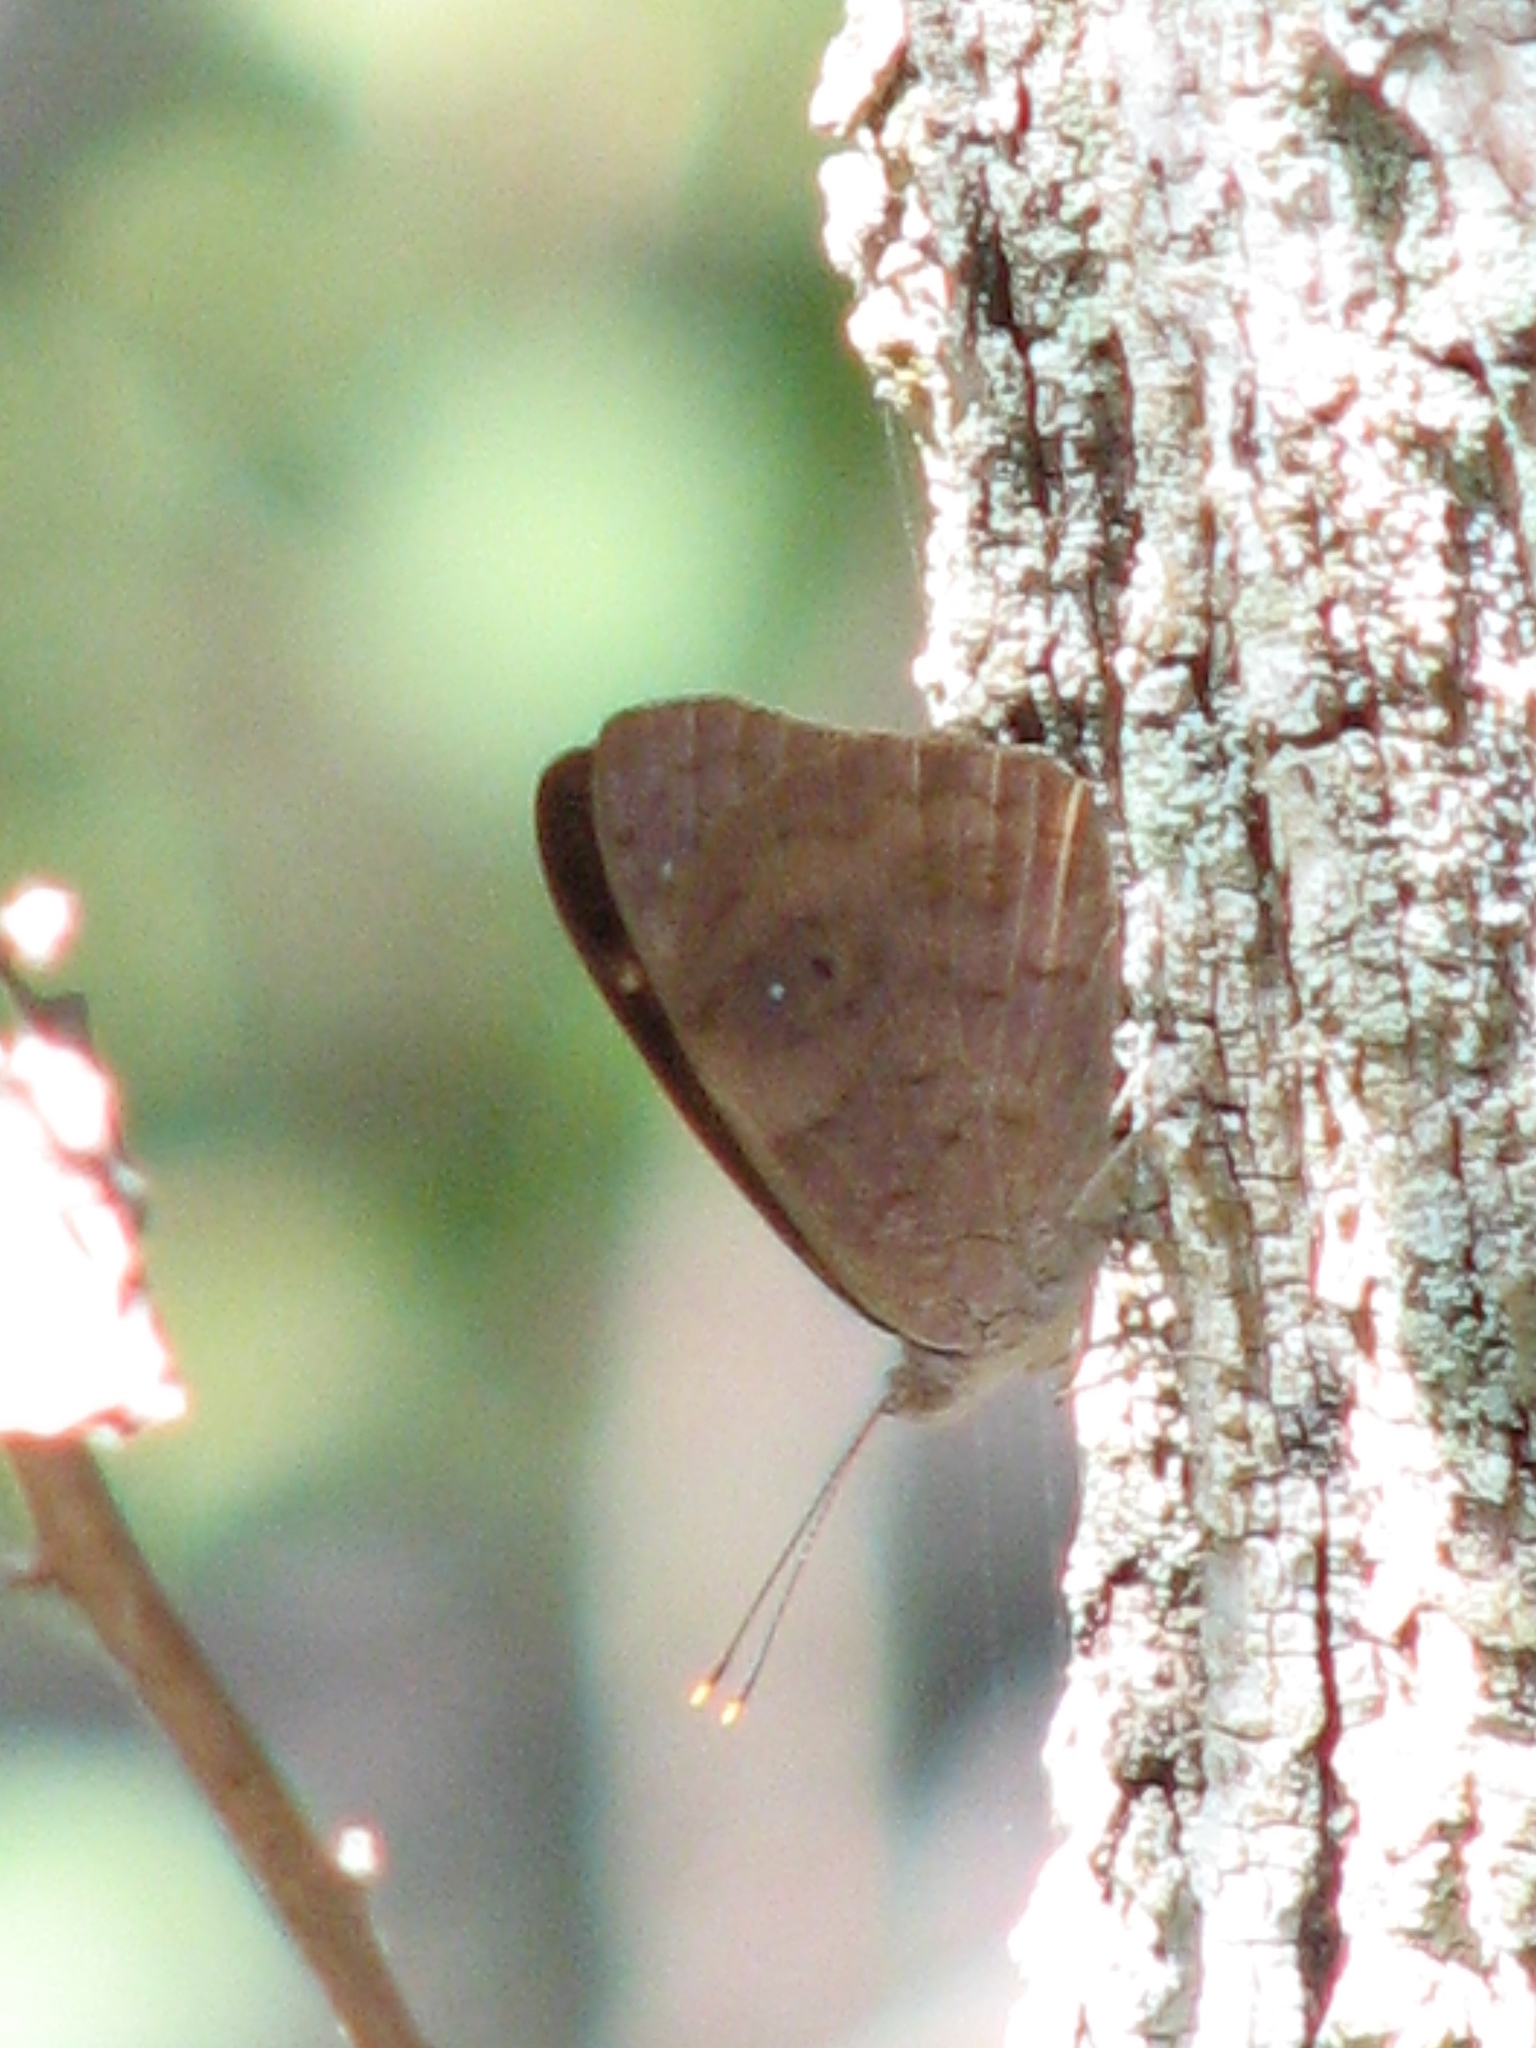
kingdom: Animalia
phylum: Arthropoda
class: Insecta
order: Lepidoptera
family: Nymphalidae
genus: Eunica
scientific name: Eunica monima
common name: Dingy purplewing
